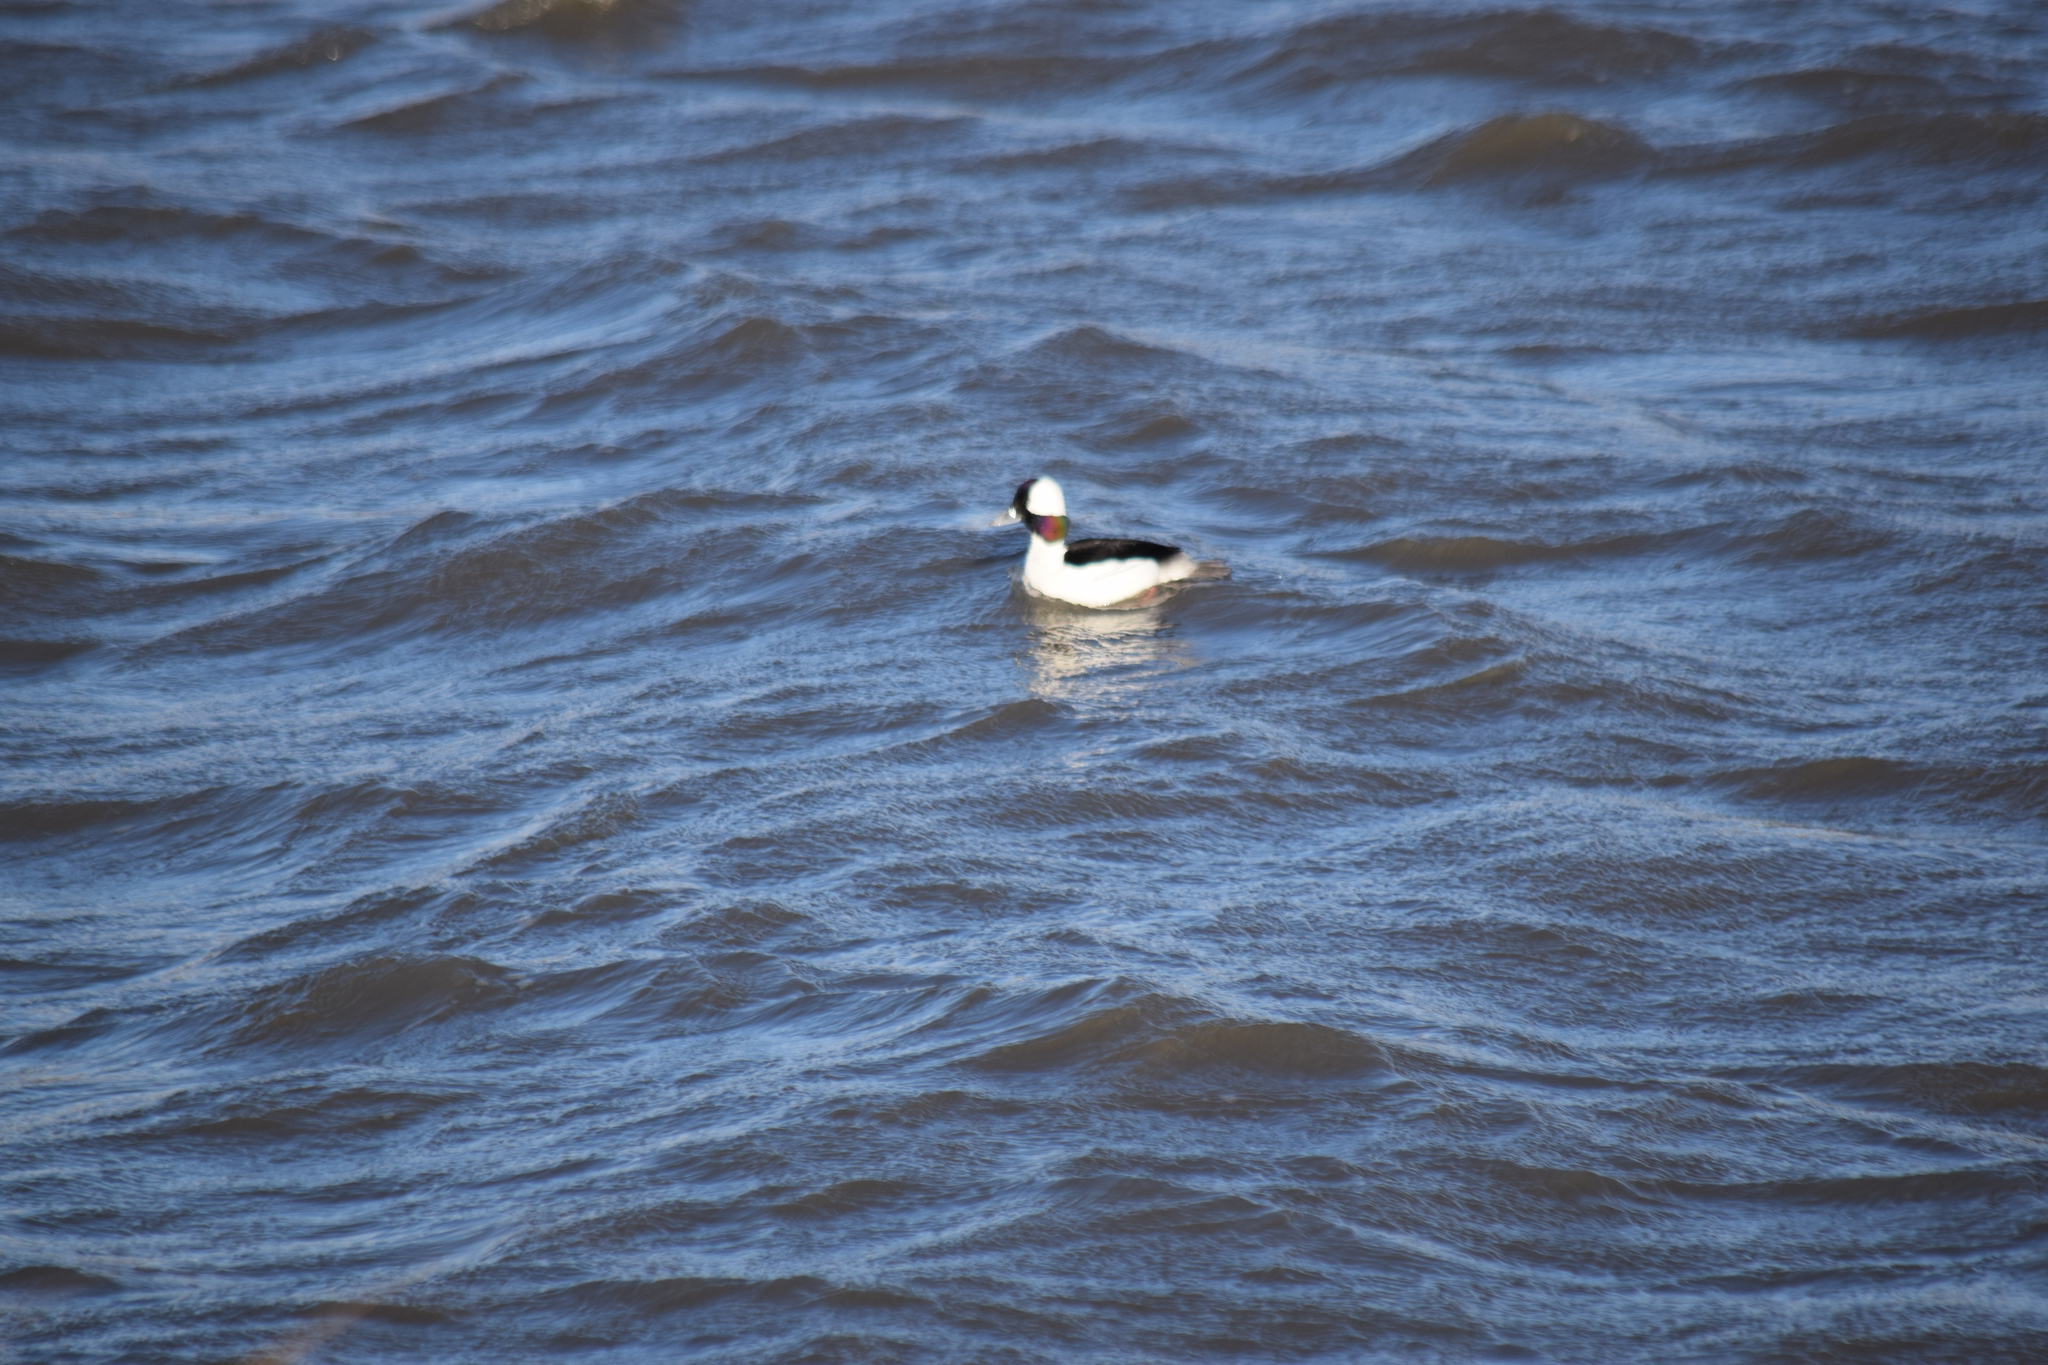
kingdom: Animalia
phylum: Chordata
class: Aves
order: Anseriformes
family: Anatidae
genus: Bucephala
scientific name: Bucephala albeola
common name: Bufflehead
